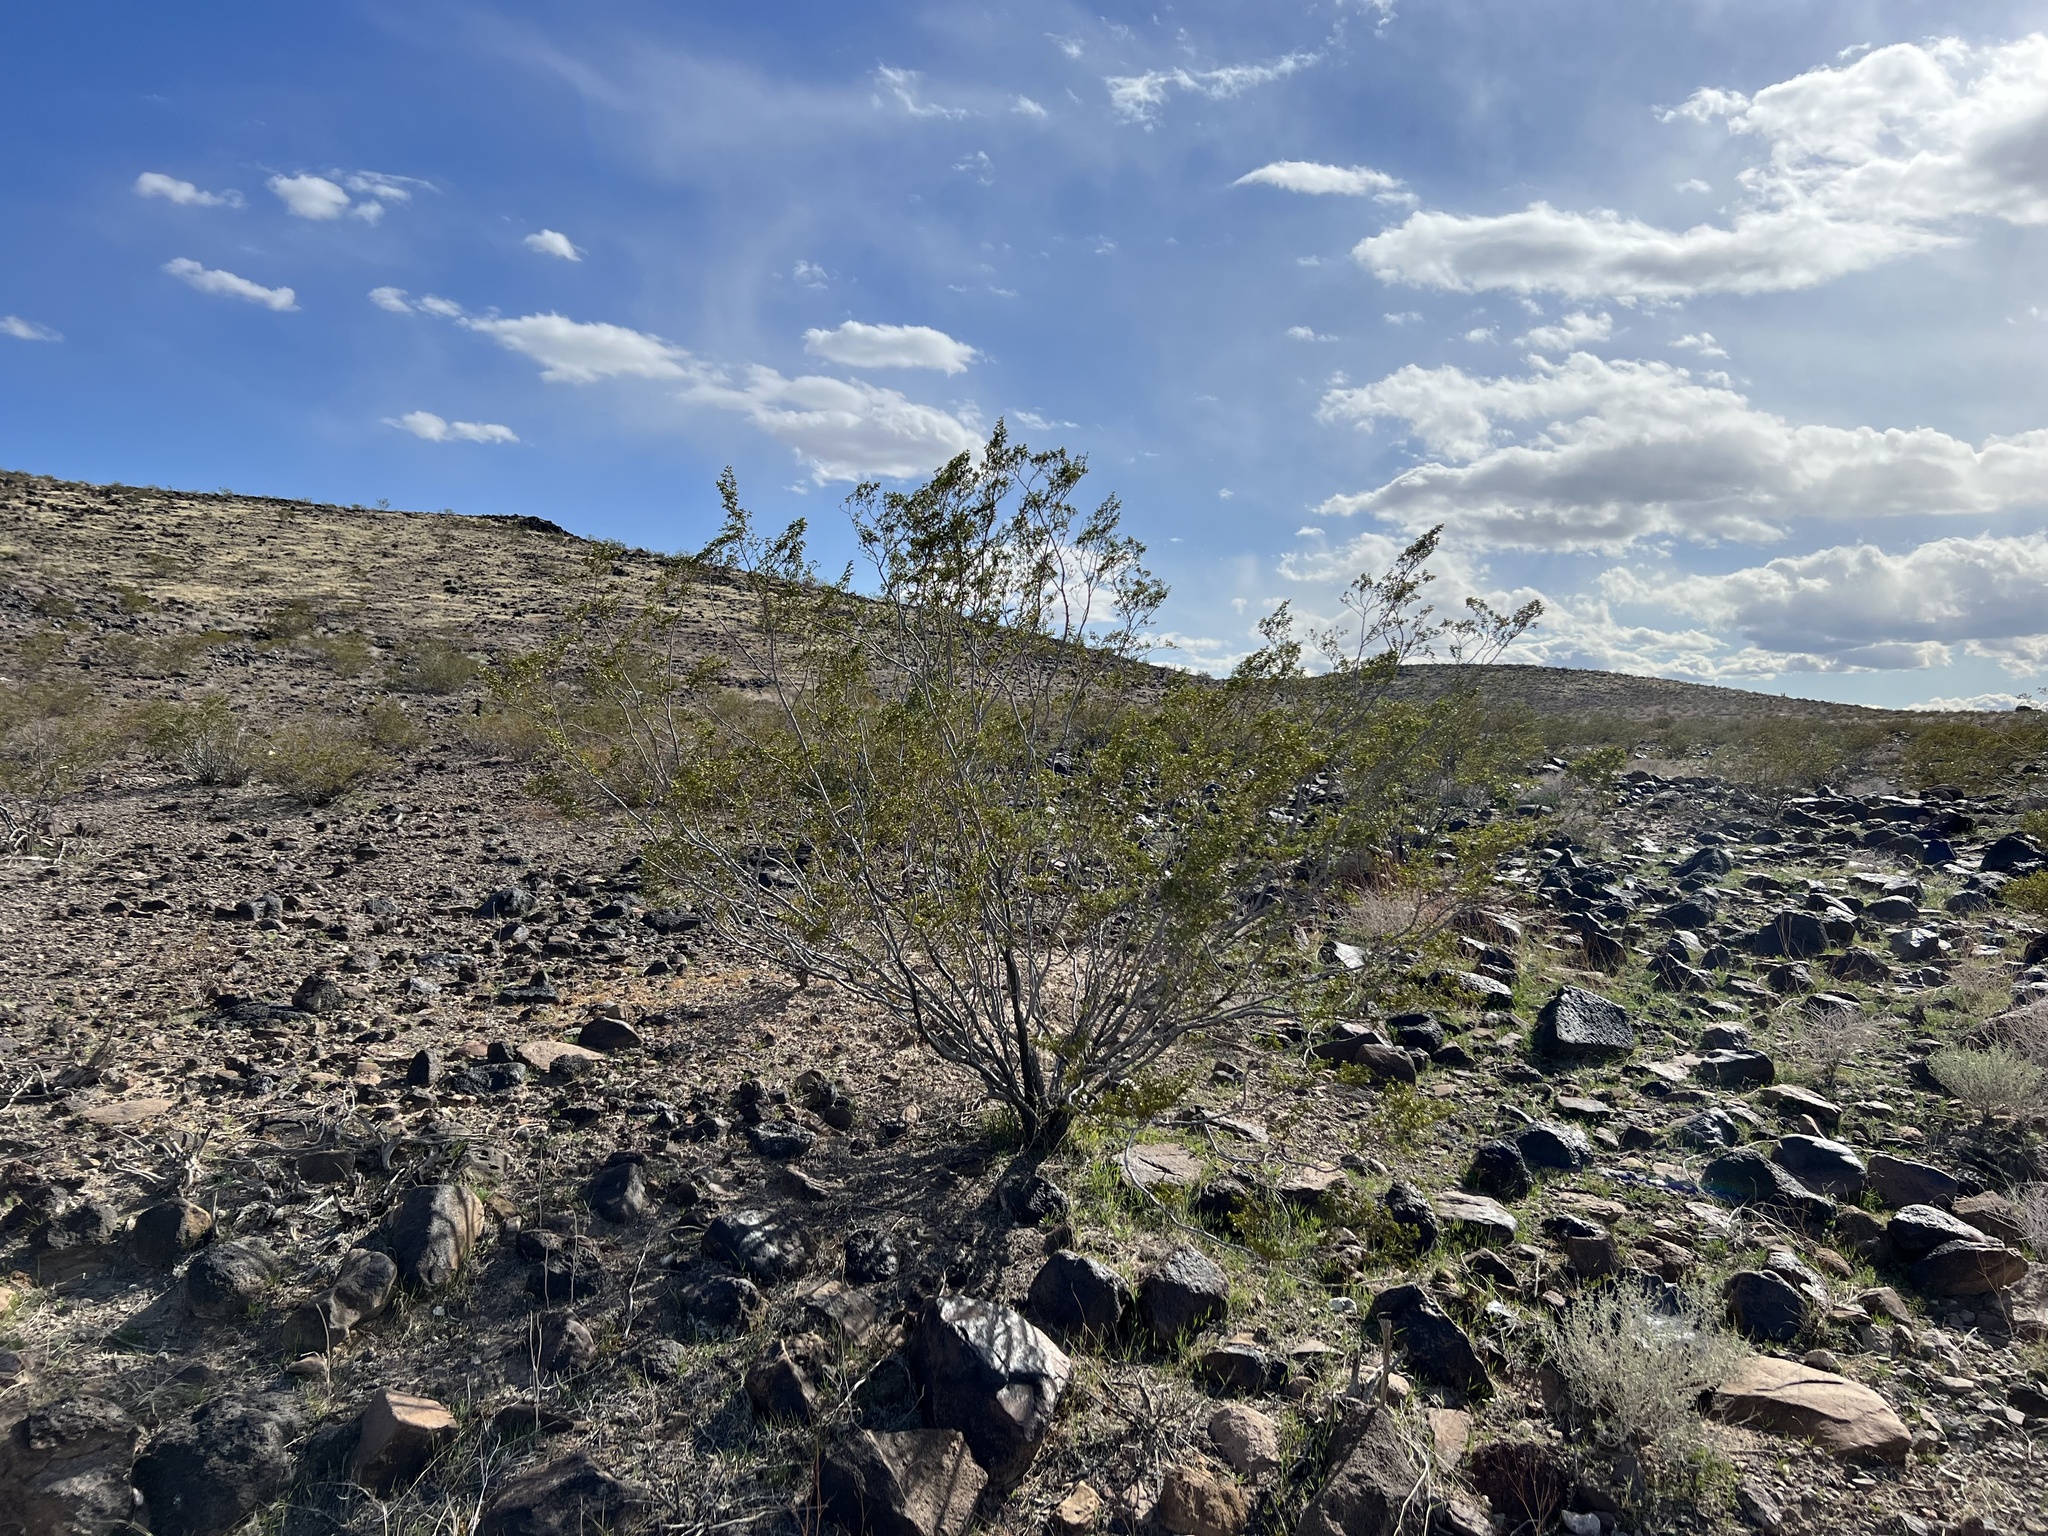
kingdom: Plantae
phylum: Tracheophyta
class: Magnoliopsida
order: Zygophyllales
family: Zygophyllaceae
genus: Larrea
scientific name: Larrea tridentata
